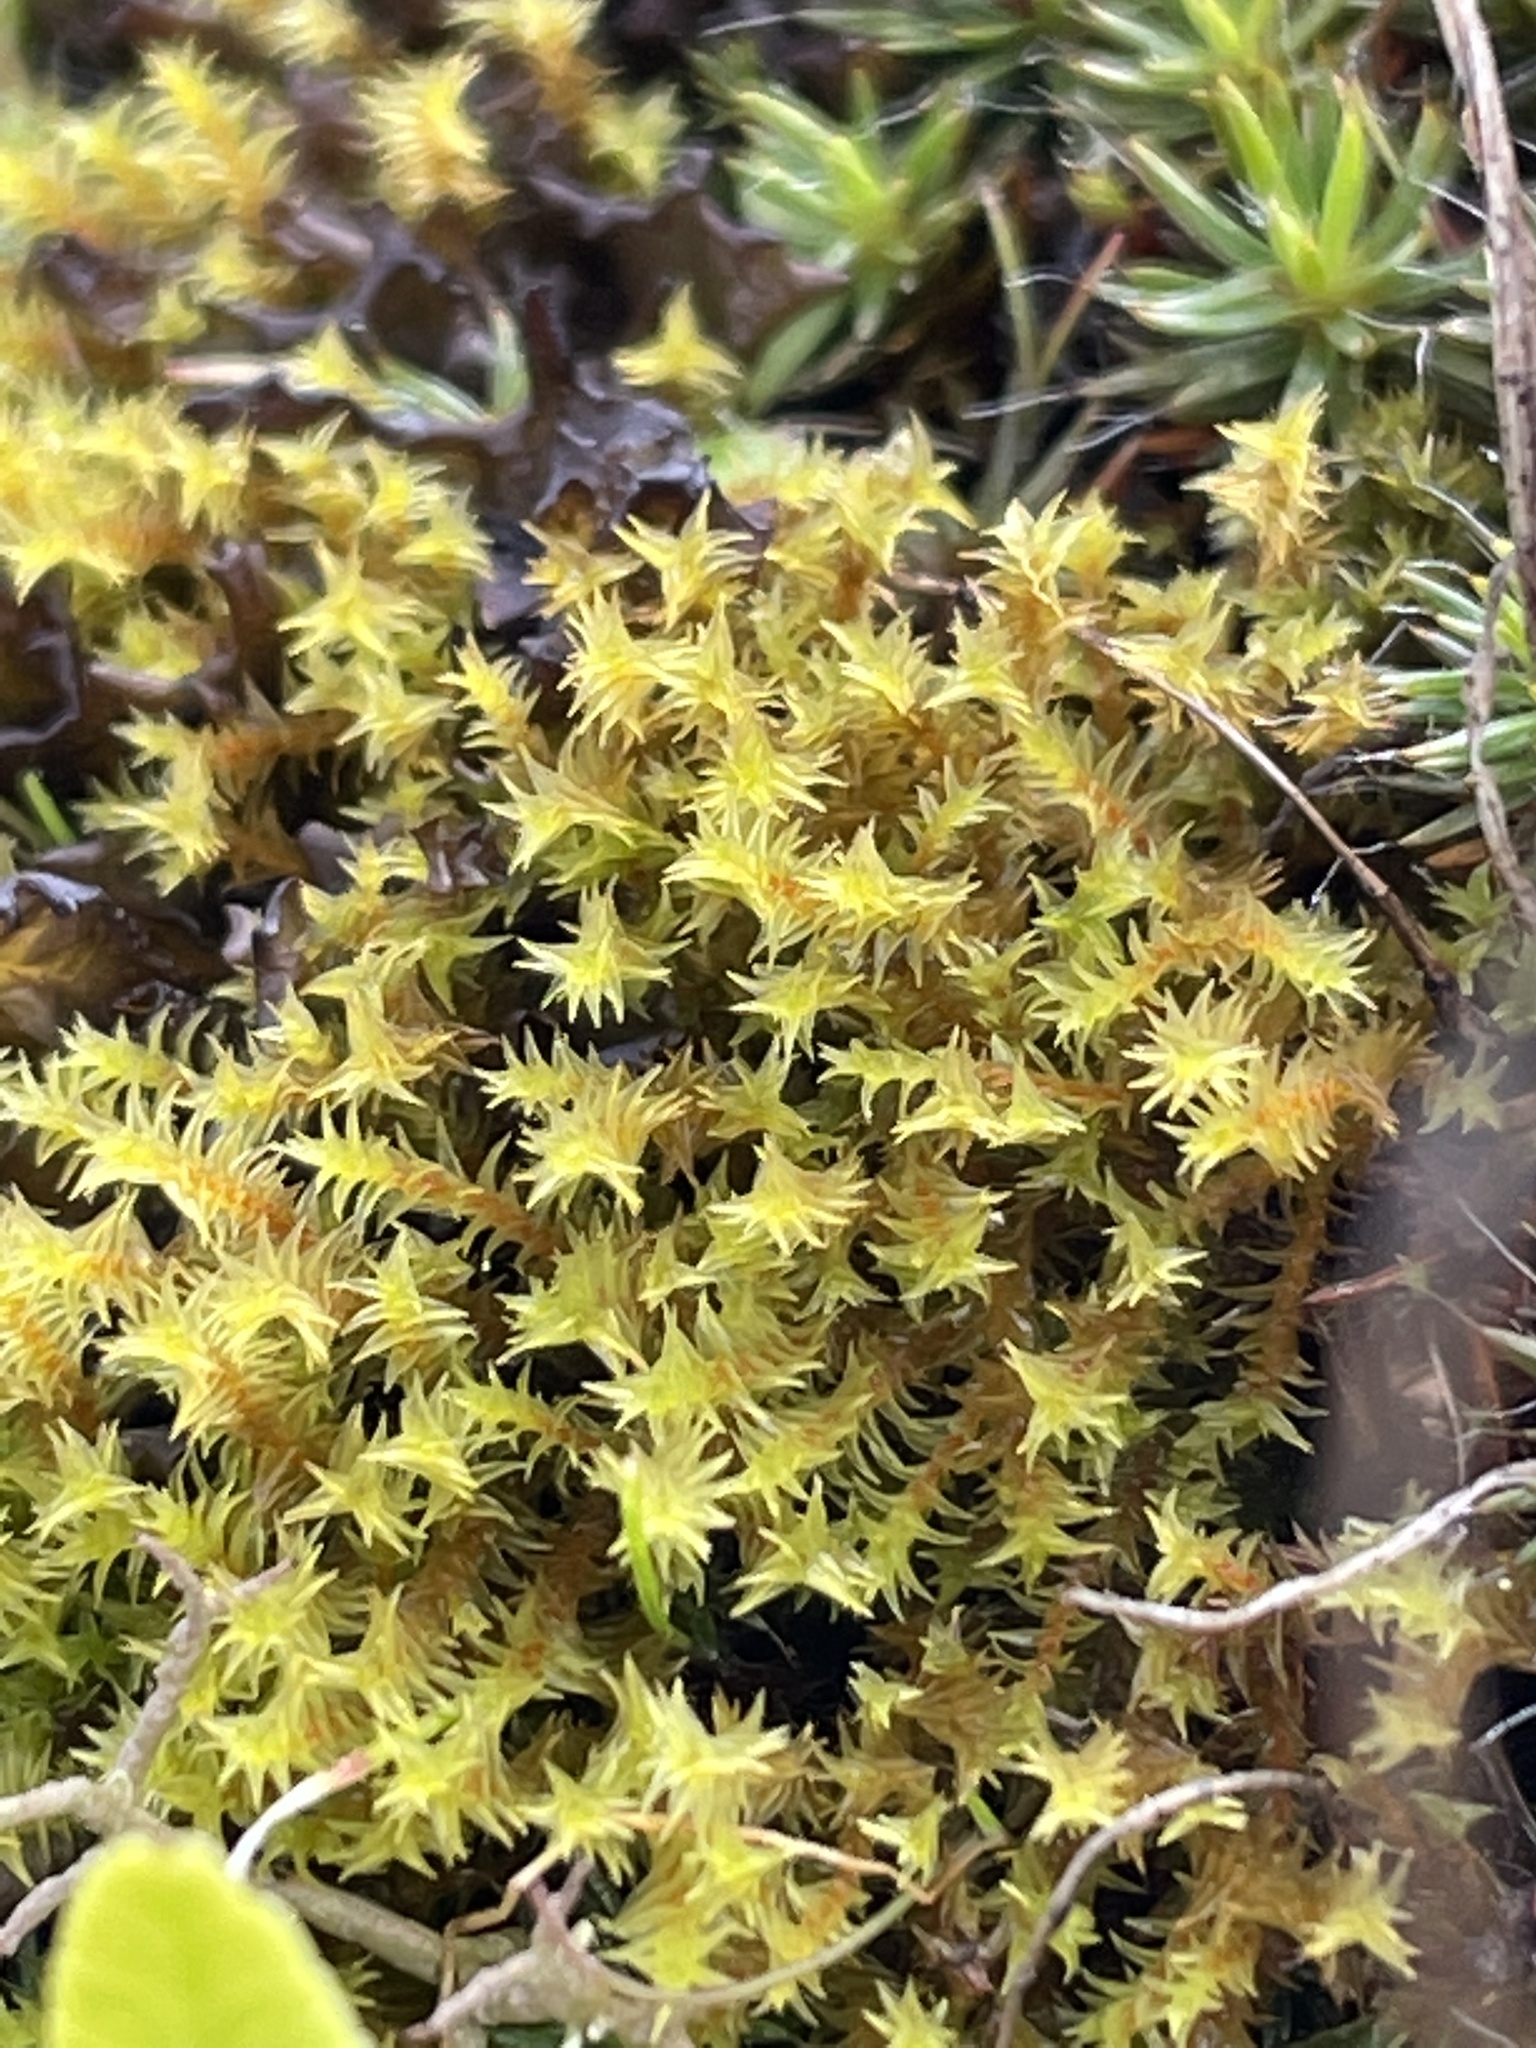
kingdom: Plantae
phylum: Bryophyta
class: Bryopsida
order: Pottiales
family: Pottiaceae
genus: Triquetrella
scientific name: Triquetrella californica
